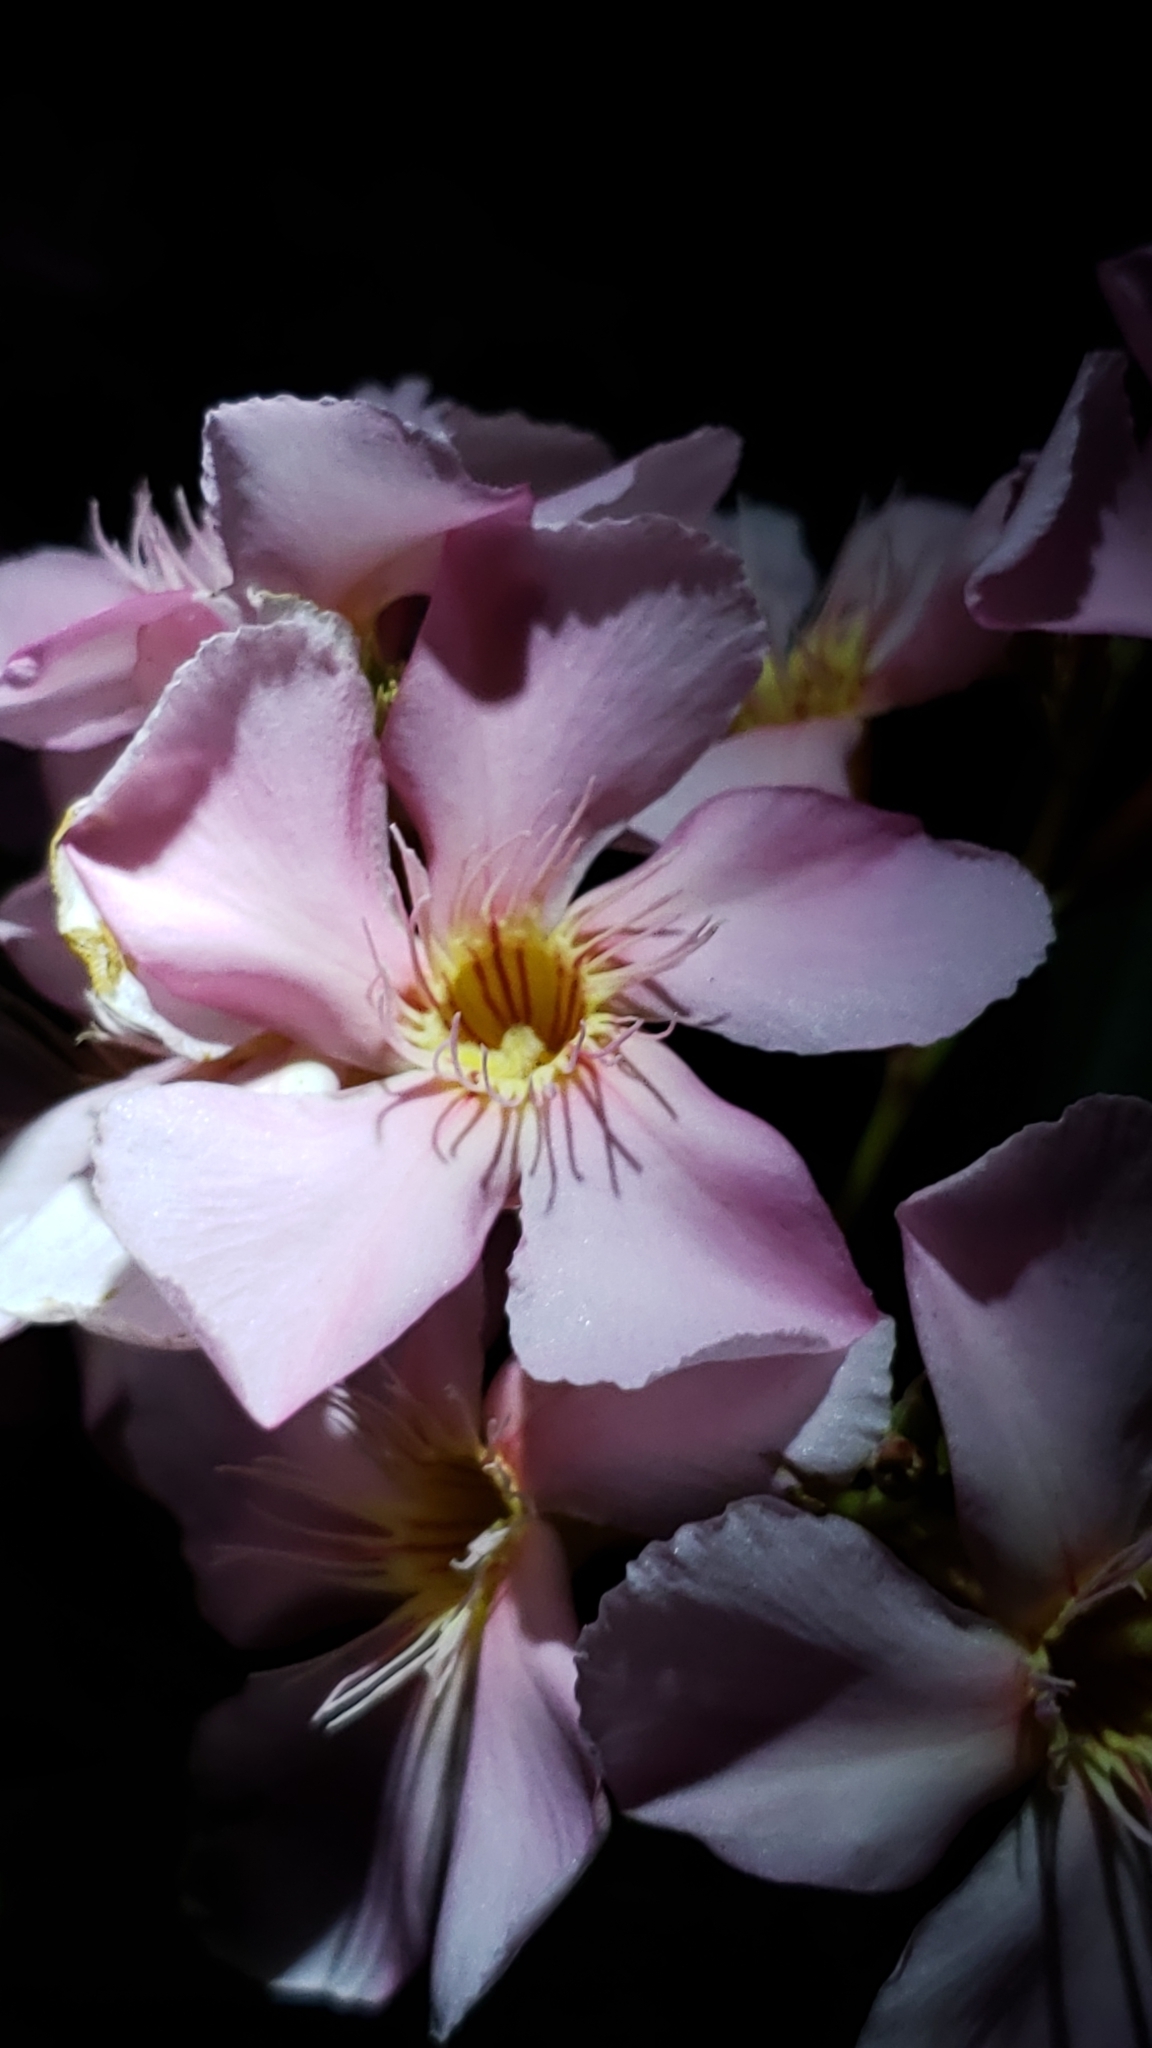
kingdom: Plantae
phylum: Tracheophyta
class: Magnoliopsida
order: Gentianales
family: Apocynaceae
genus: Nerium
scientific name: Nerium oleander
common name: Oleander
